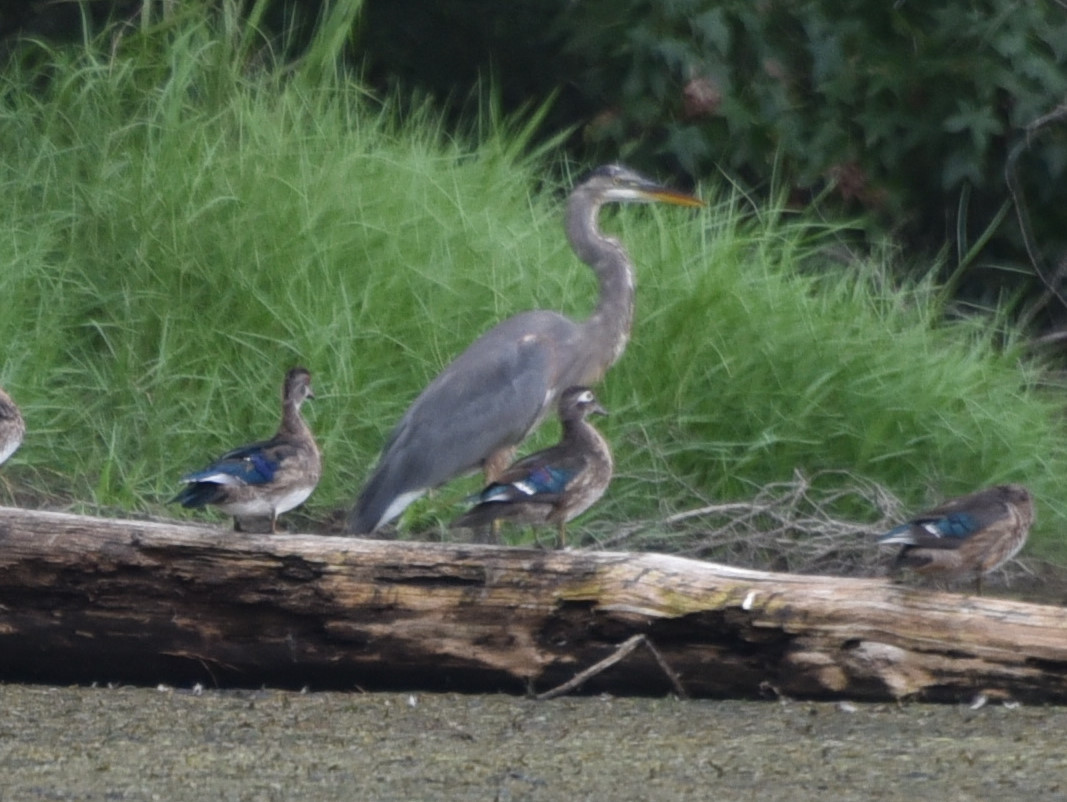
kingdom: Animalia
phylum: Chordata
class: Aves
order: Pelecaniformes
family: Ardeidae
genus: Ardea
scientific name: Ardea herodias
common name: Great blue heron
